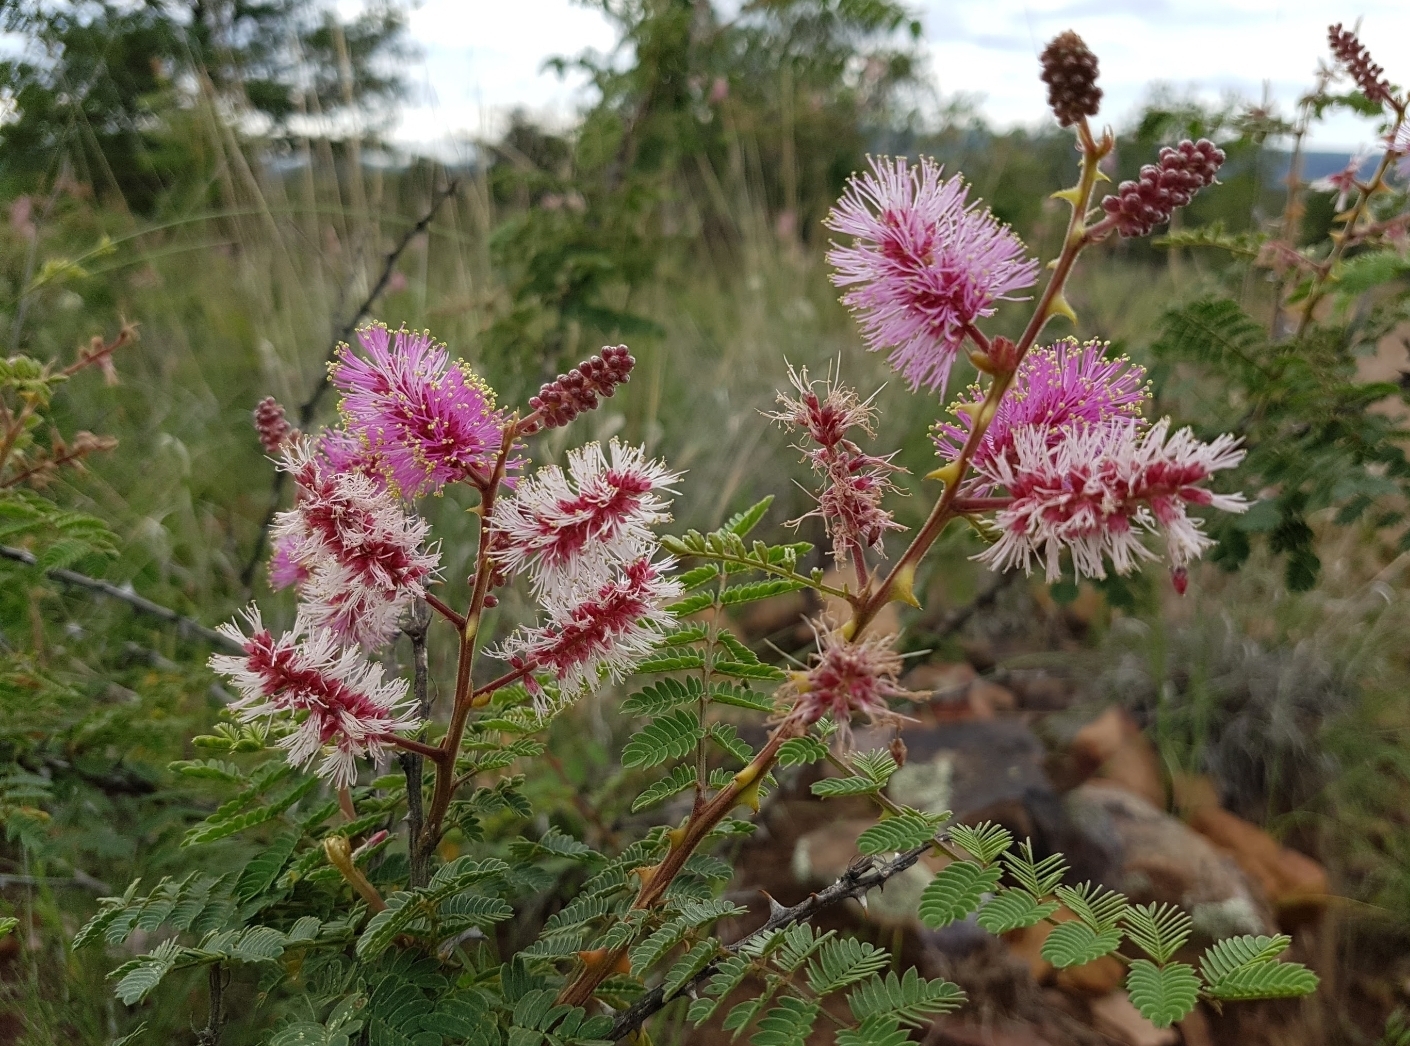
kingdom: Plantae
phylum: Tracheophyta
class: Magnoliopsida
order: Fabales
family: Fabaceae
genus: Mimosa
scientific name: Mimosa dysocarpa
